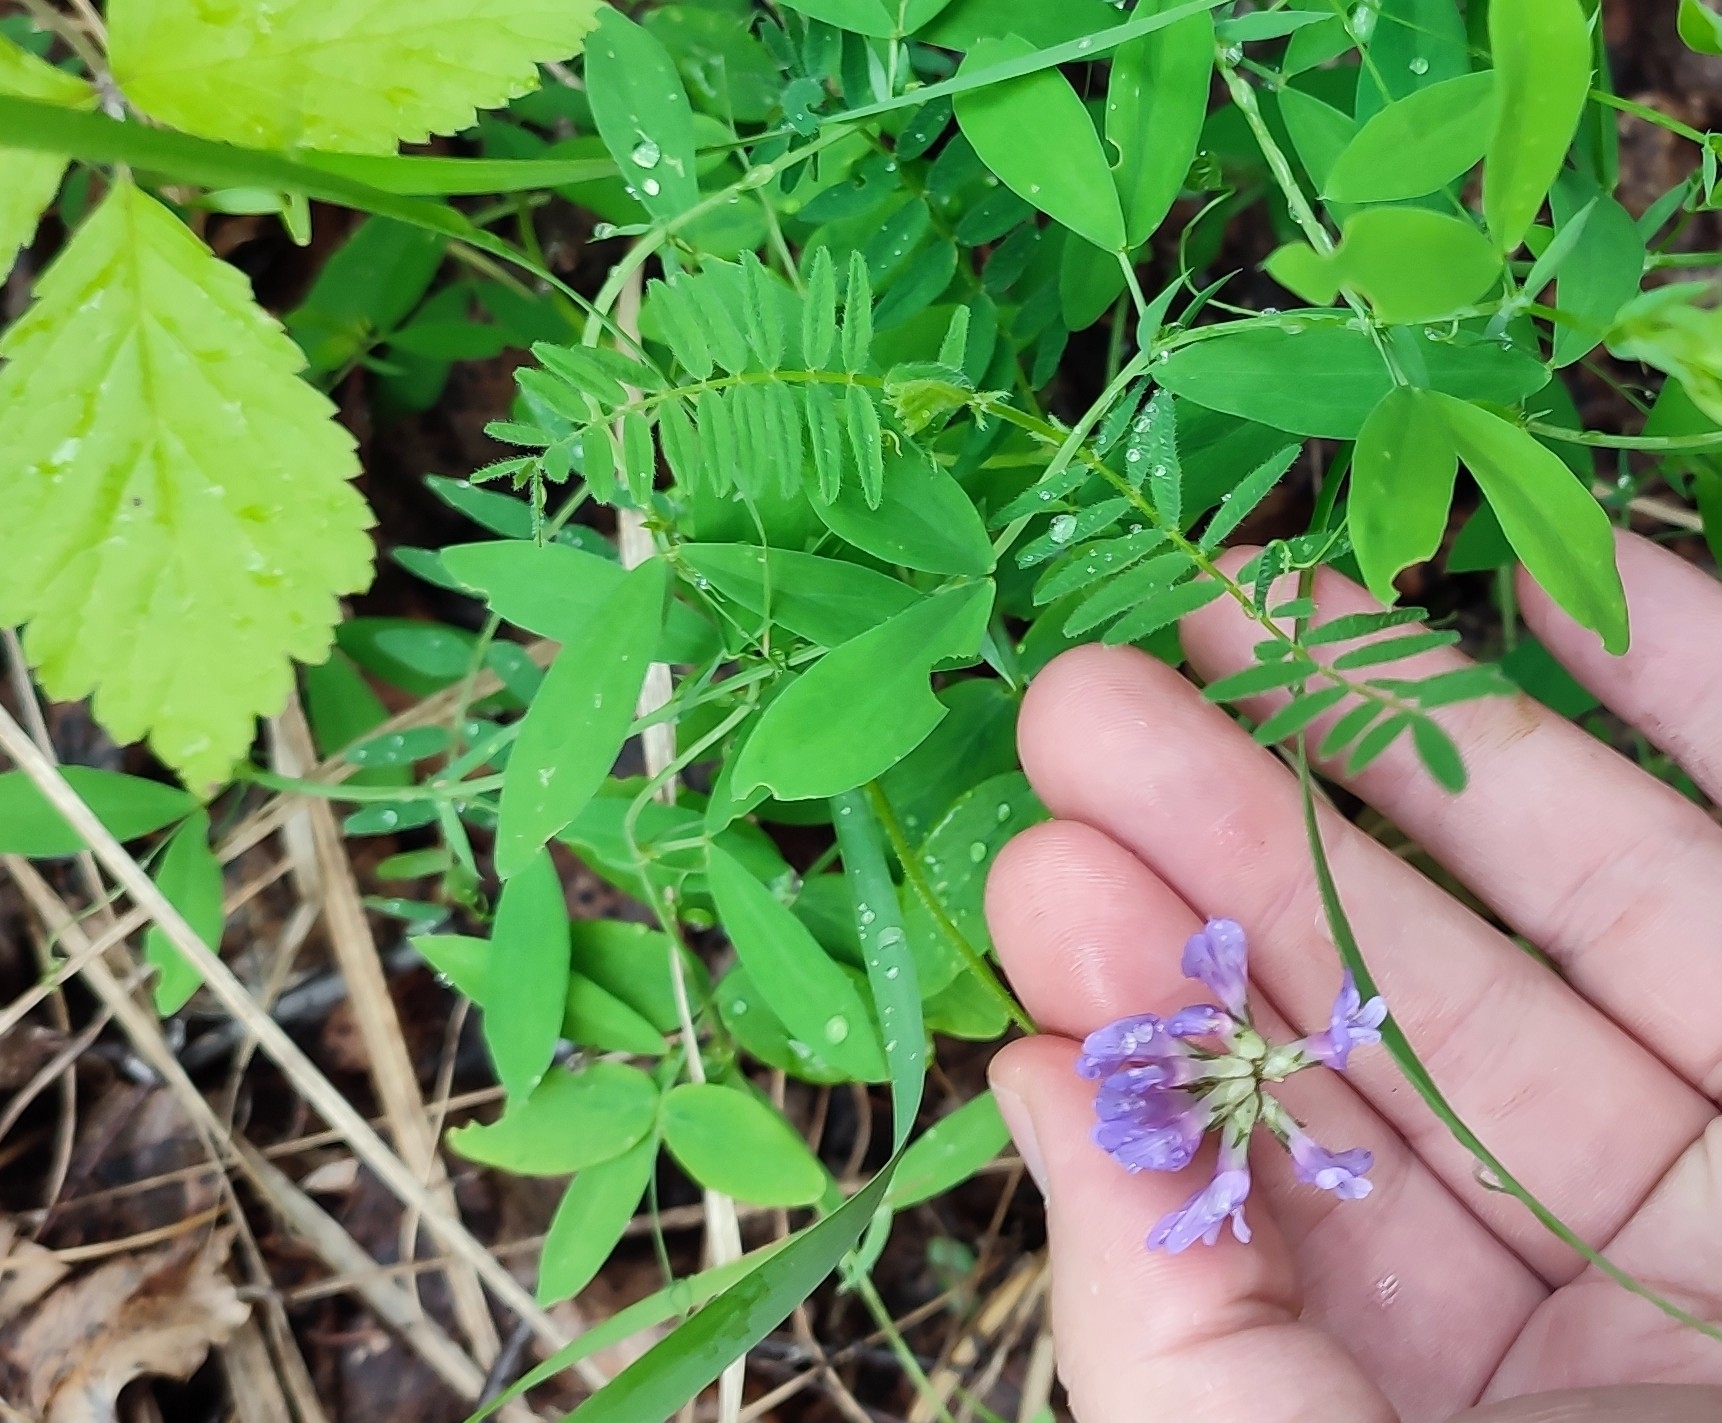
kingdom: Plantae
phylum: Tracheophyta
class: Magnoliopsida
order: Fabales
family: Fabaceae
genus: Astragalus
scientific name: Astragalus danicus
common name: Purple milk-vetch
